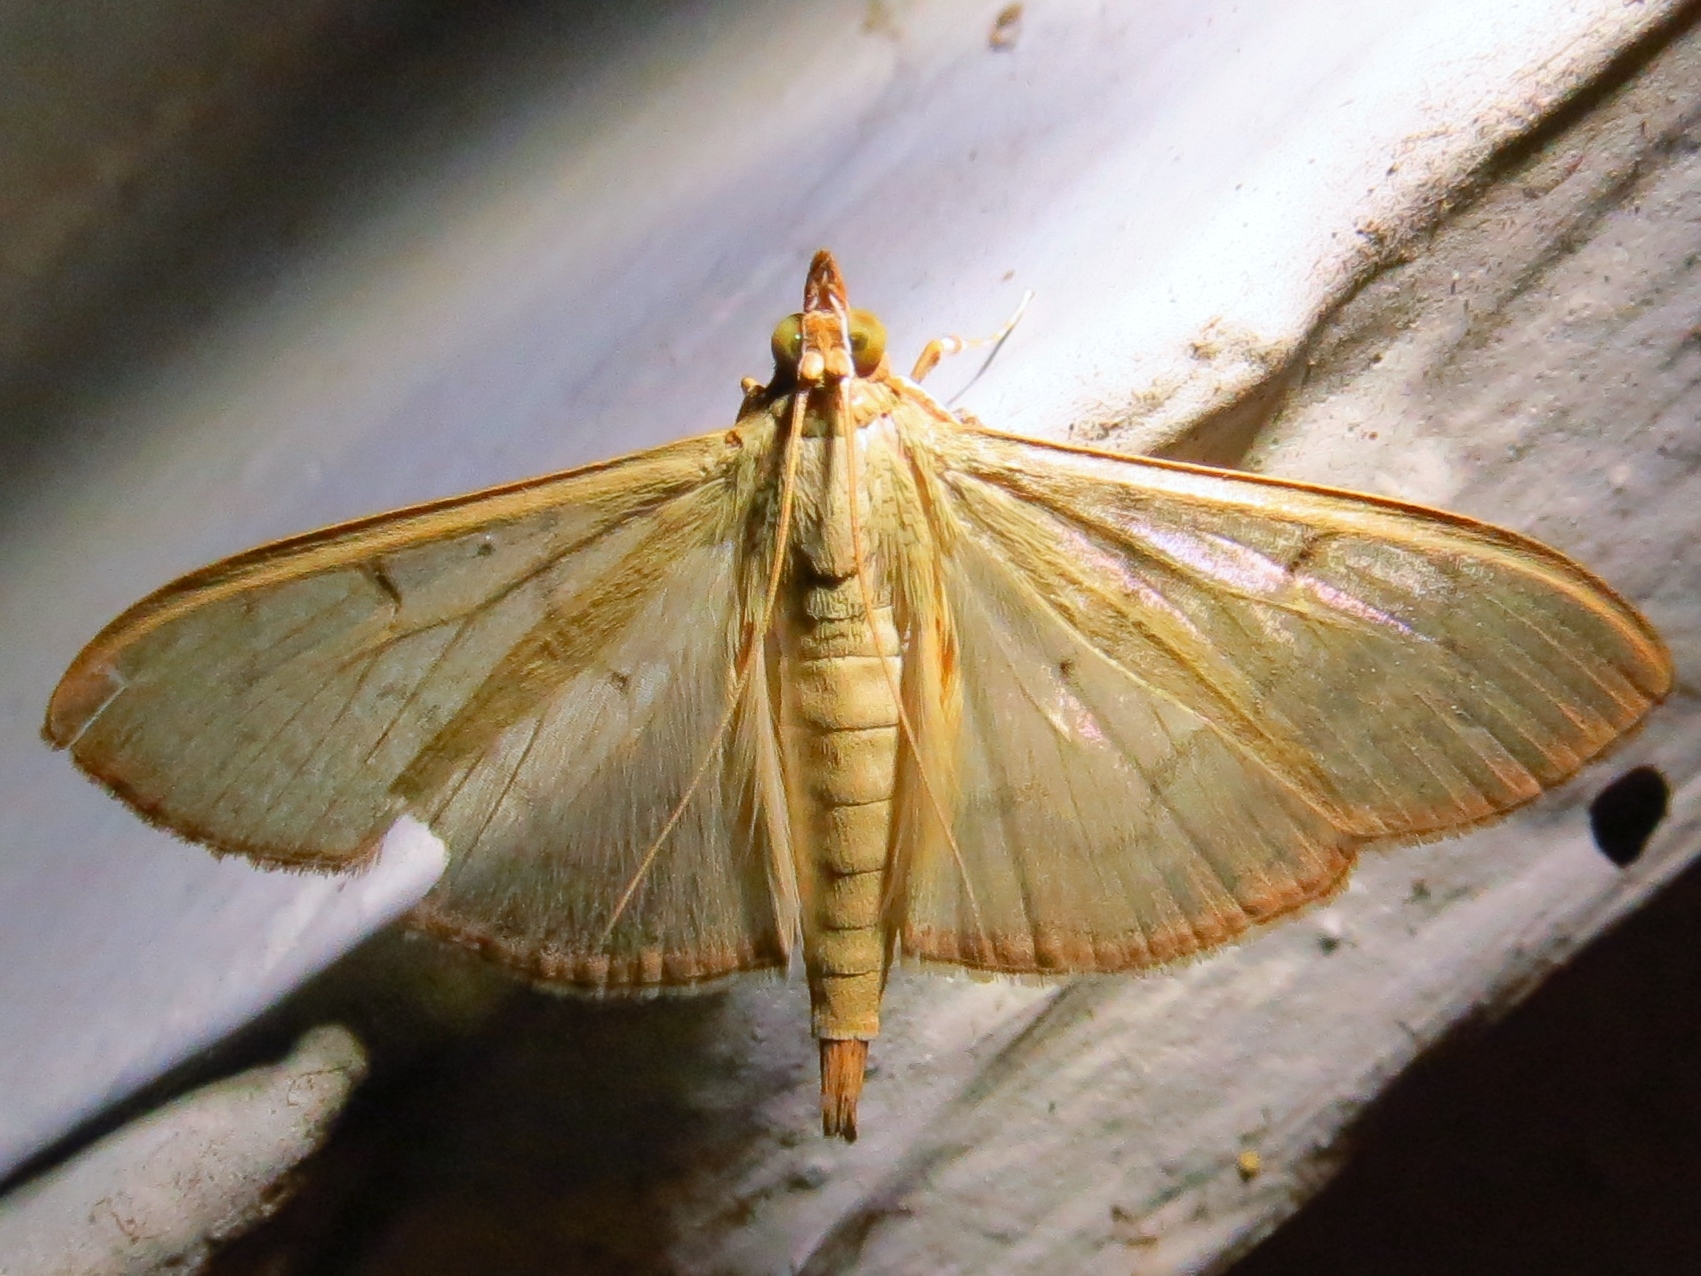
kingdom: Animalia
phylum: Arthropoda
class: Insecta
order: Lepidoptera
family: Crambidae
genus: Condylorrhiza
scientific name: Condylorrhiza vestigialis
